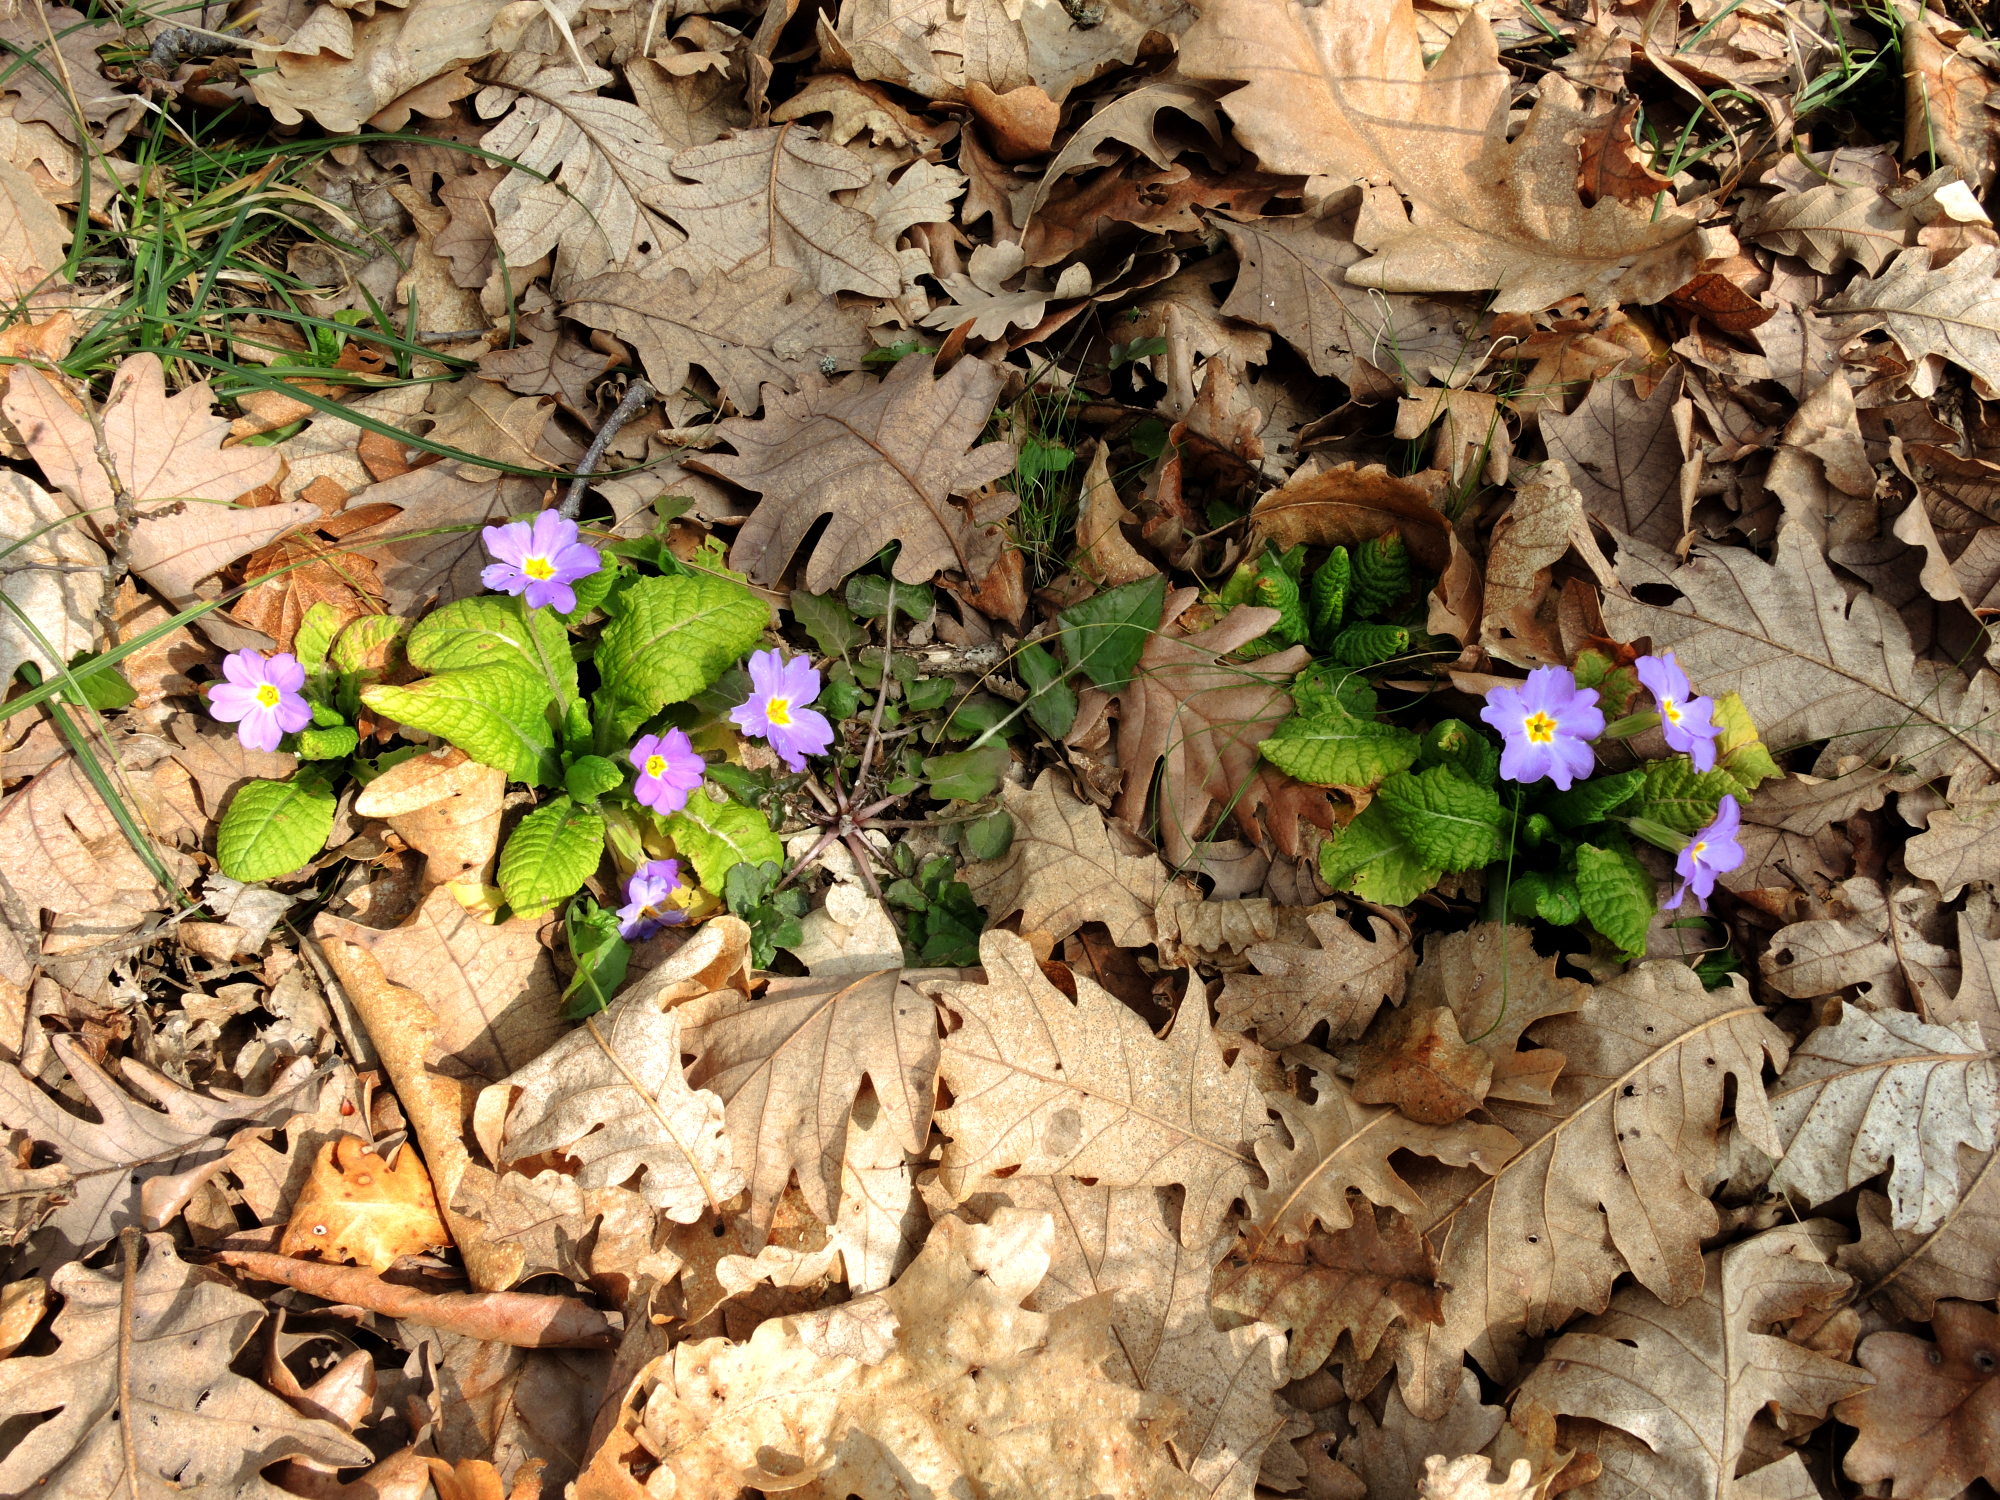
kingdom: Plantae
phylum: Tracheophyta
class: Magnoliopsida
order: Ericales
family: Primulaceae
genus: Primula
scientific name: Primula vulgaris
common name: Primrose
